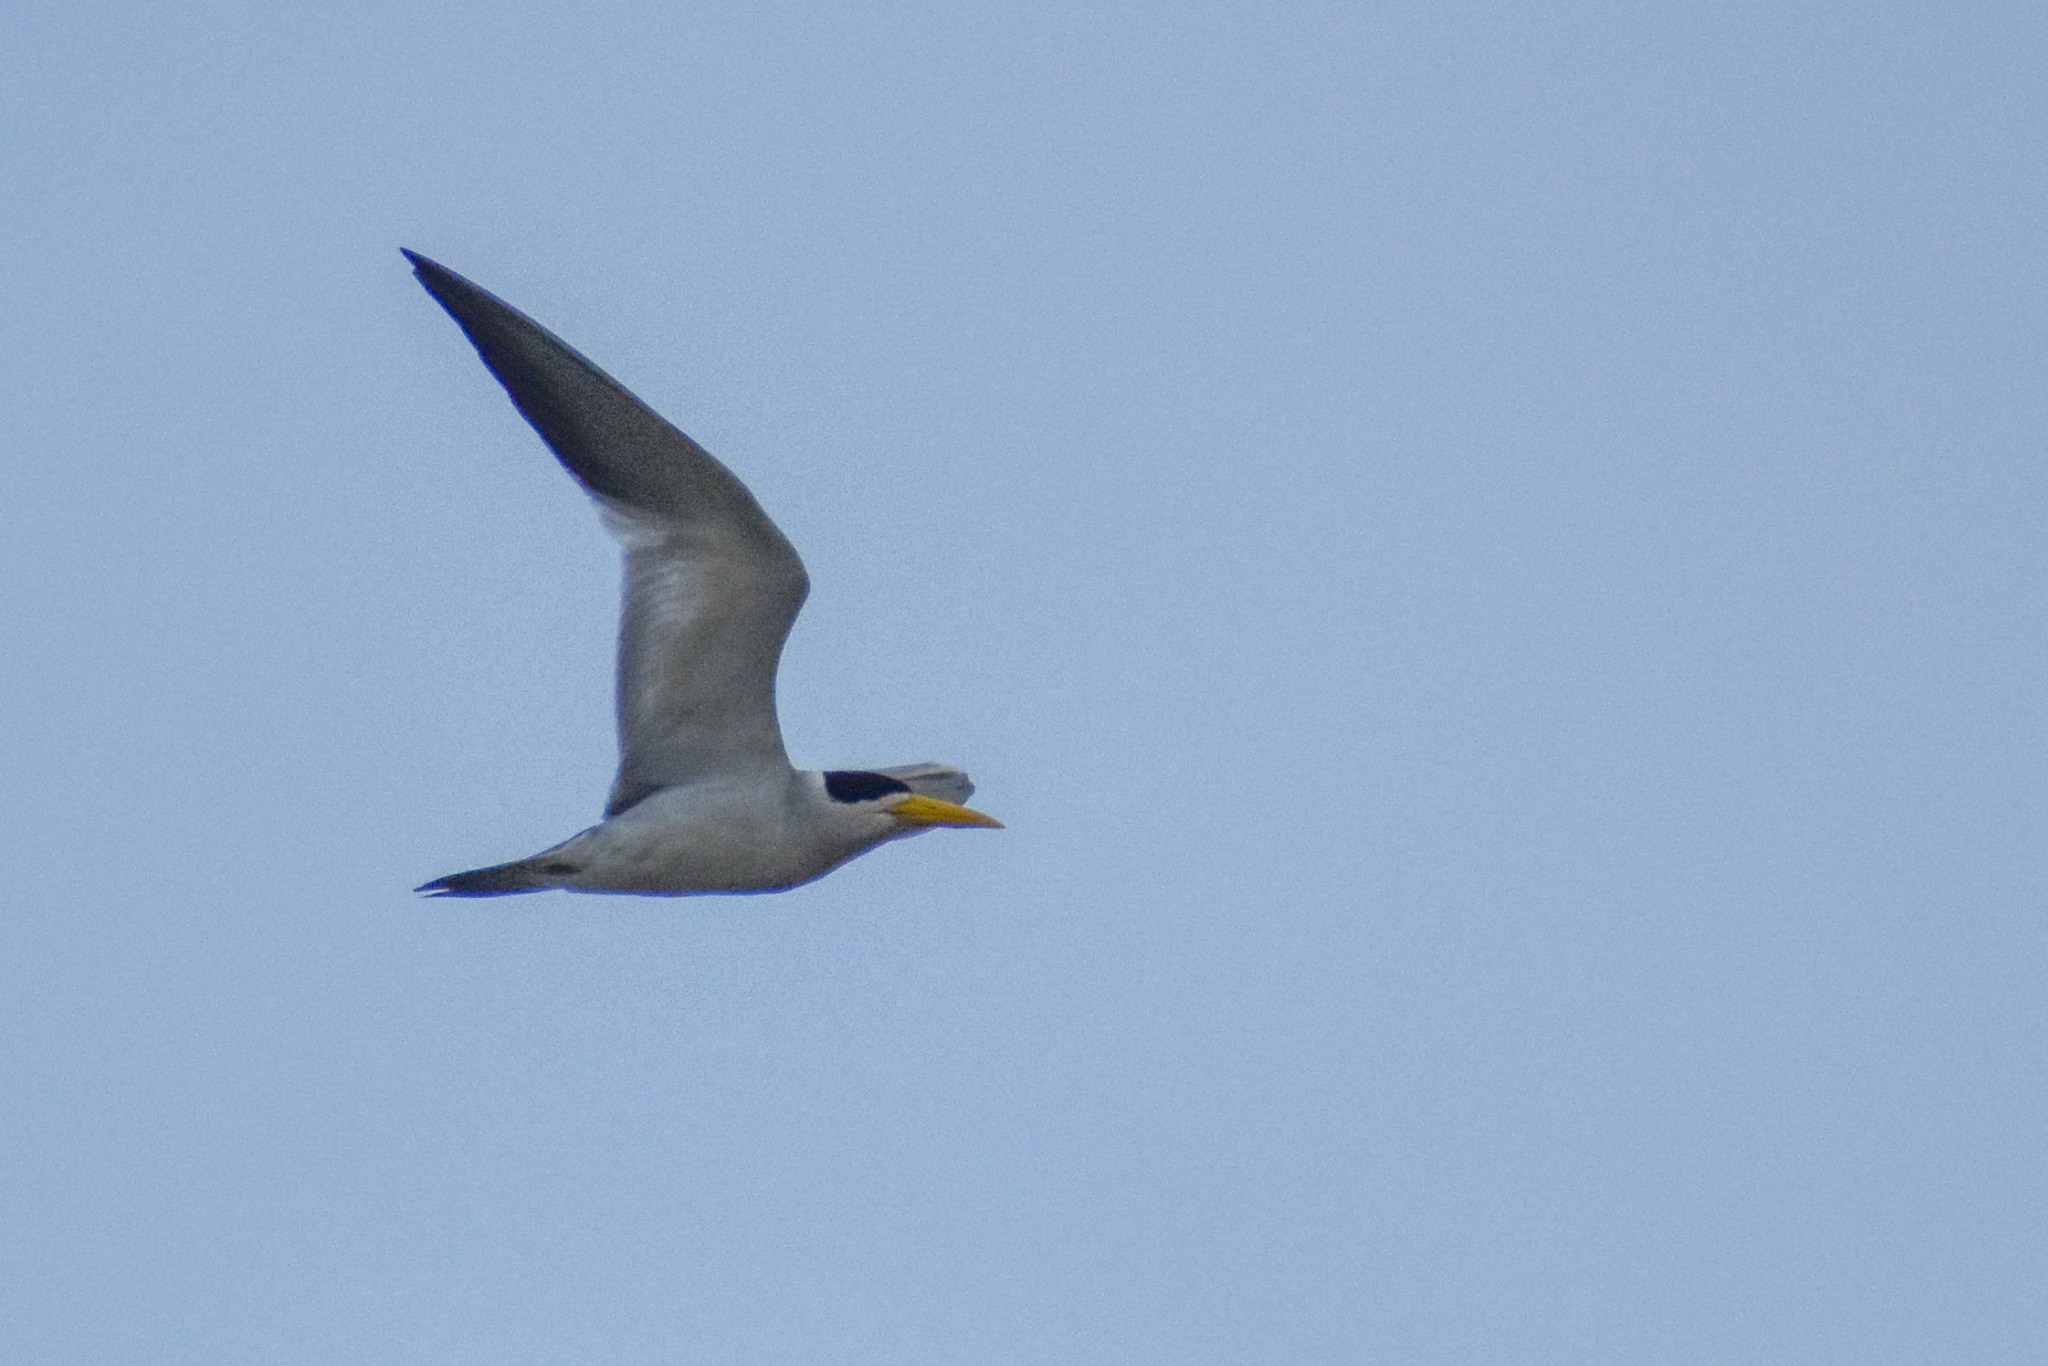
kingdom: Animalia
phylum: Chordata
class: Aves
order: Charadriiformes
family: Laridae
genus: Phaetusa
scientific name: Phaetusa simplex
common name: Large-billed tern
